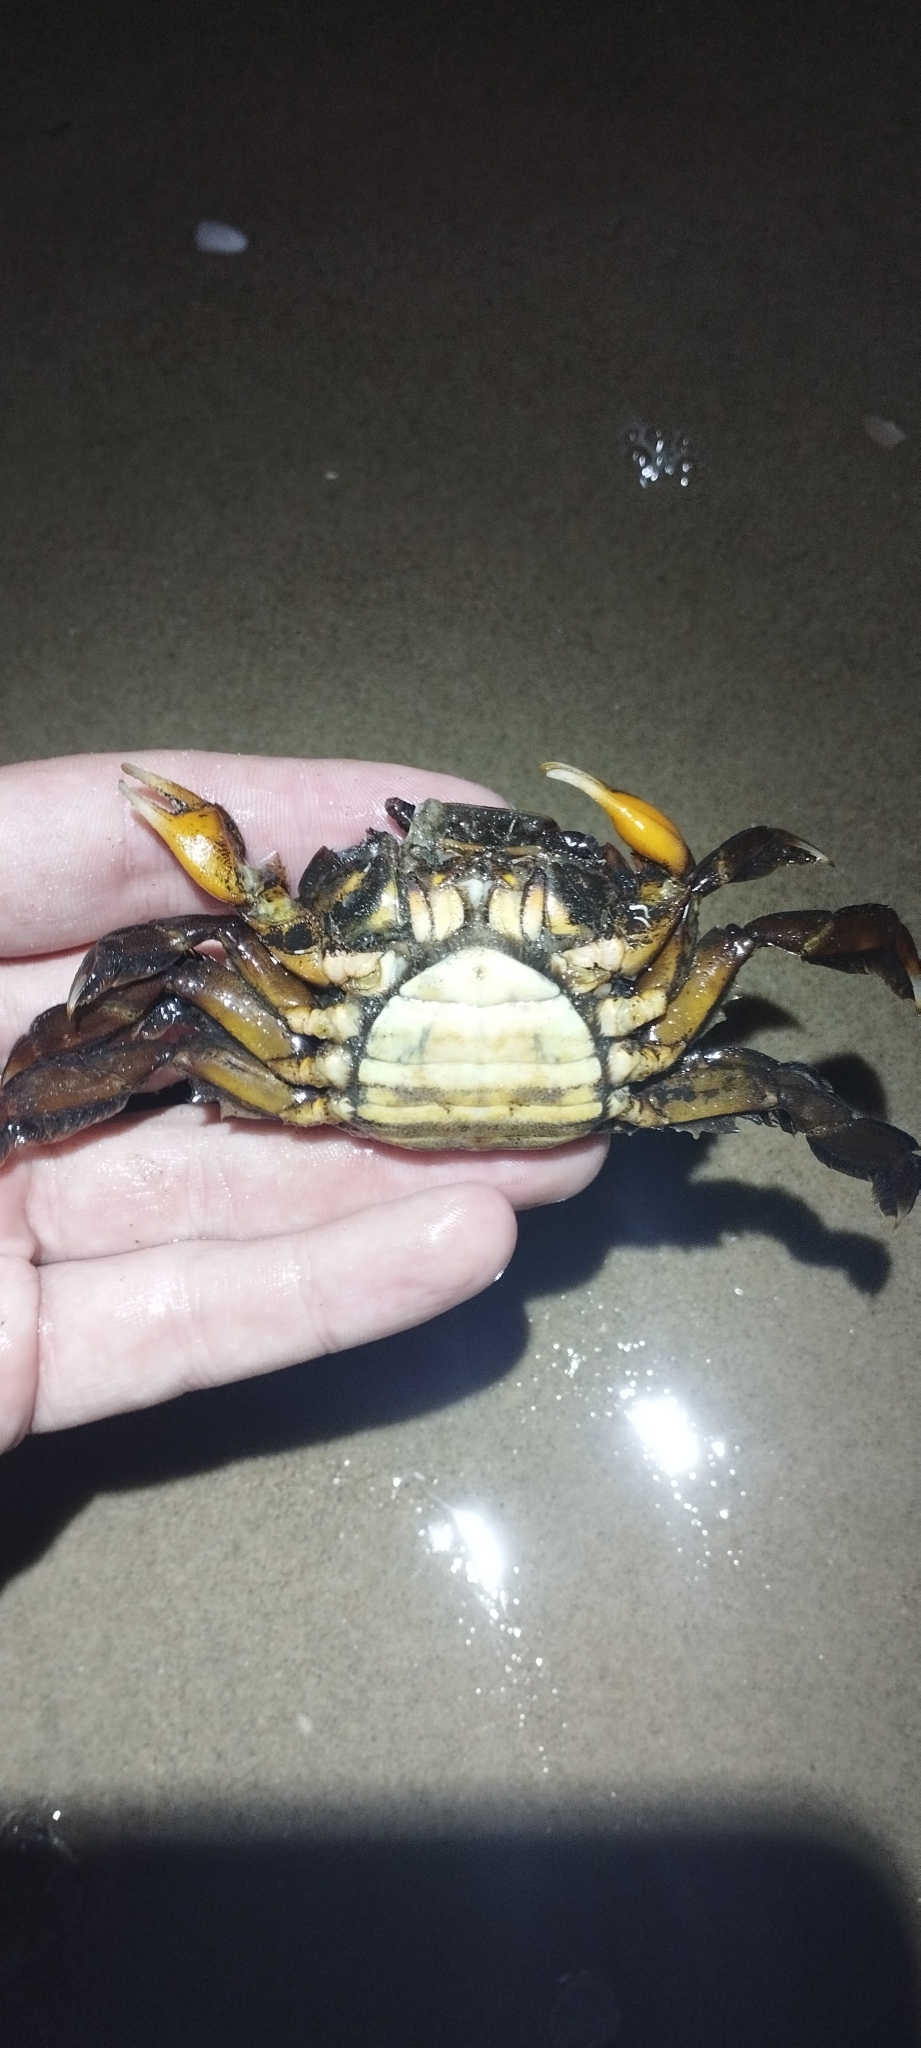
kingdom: Animalia
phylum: Arthropoda
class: Malacostraca
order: Decapoda
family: Varunidae
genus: Varuna
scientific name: Varuna litterata
